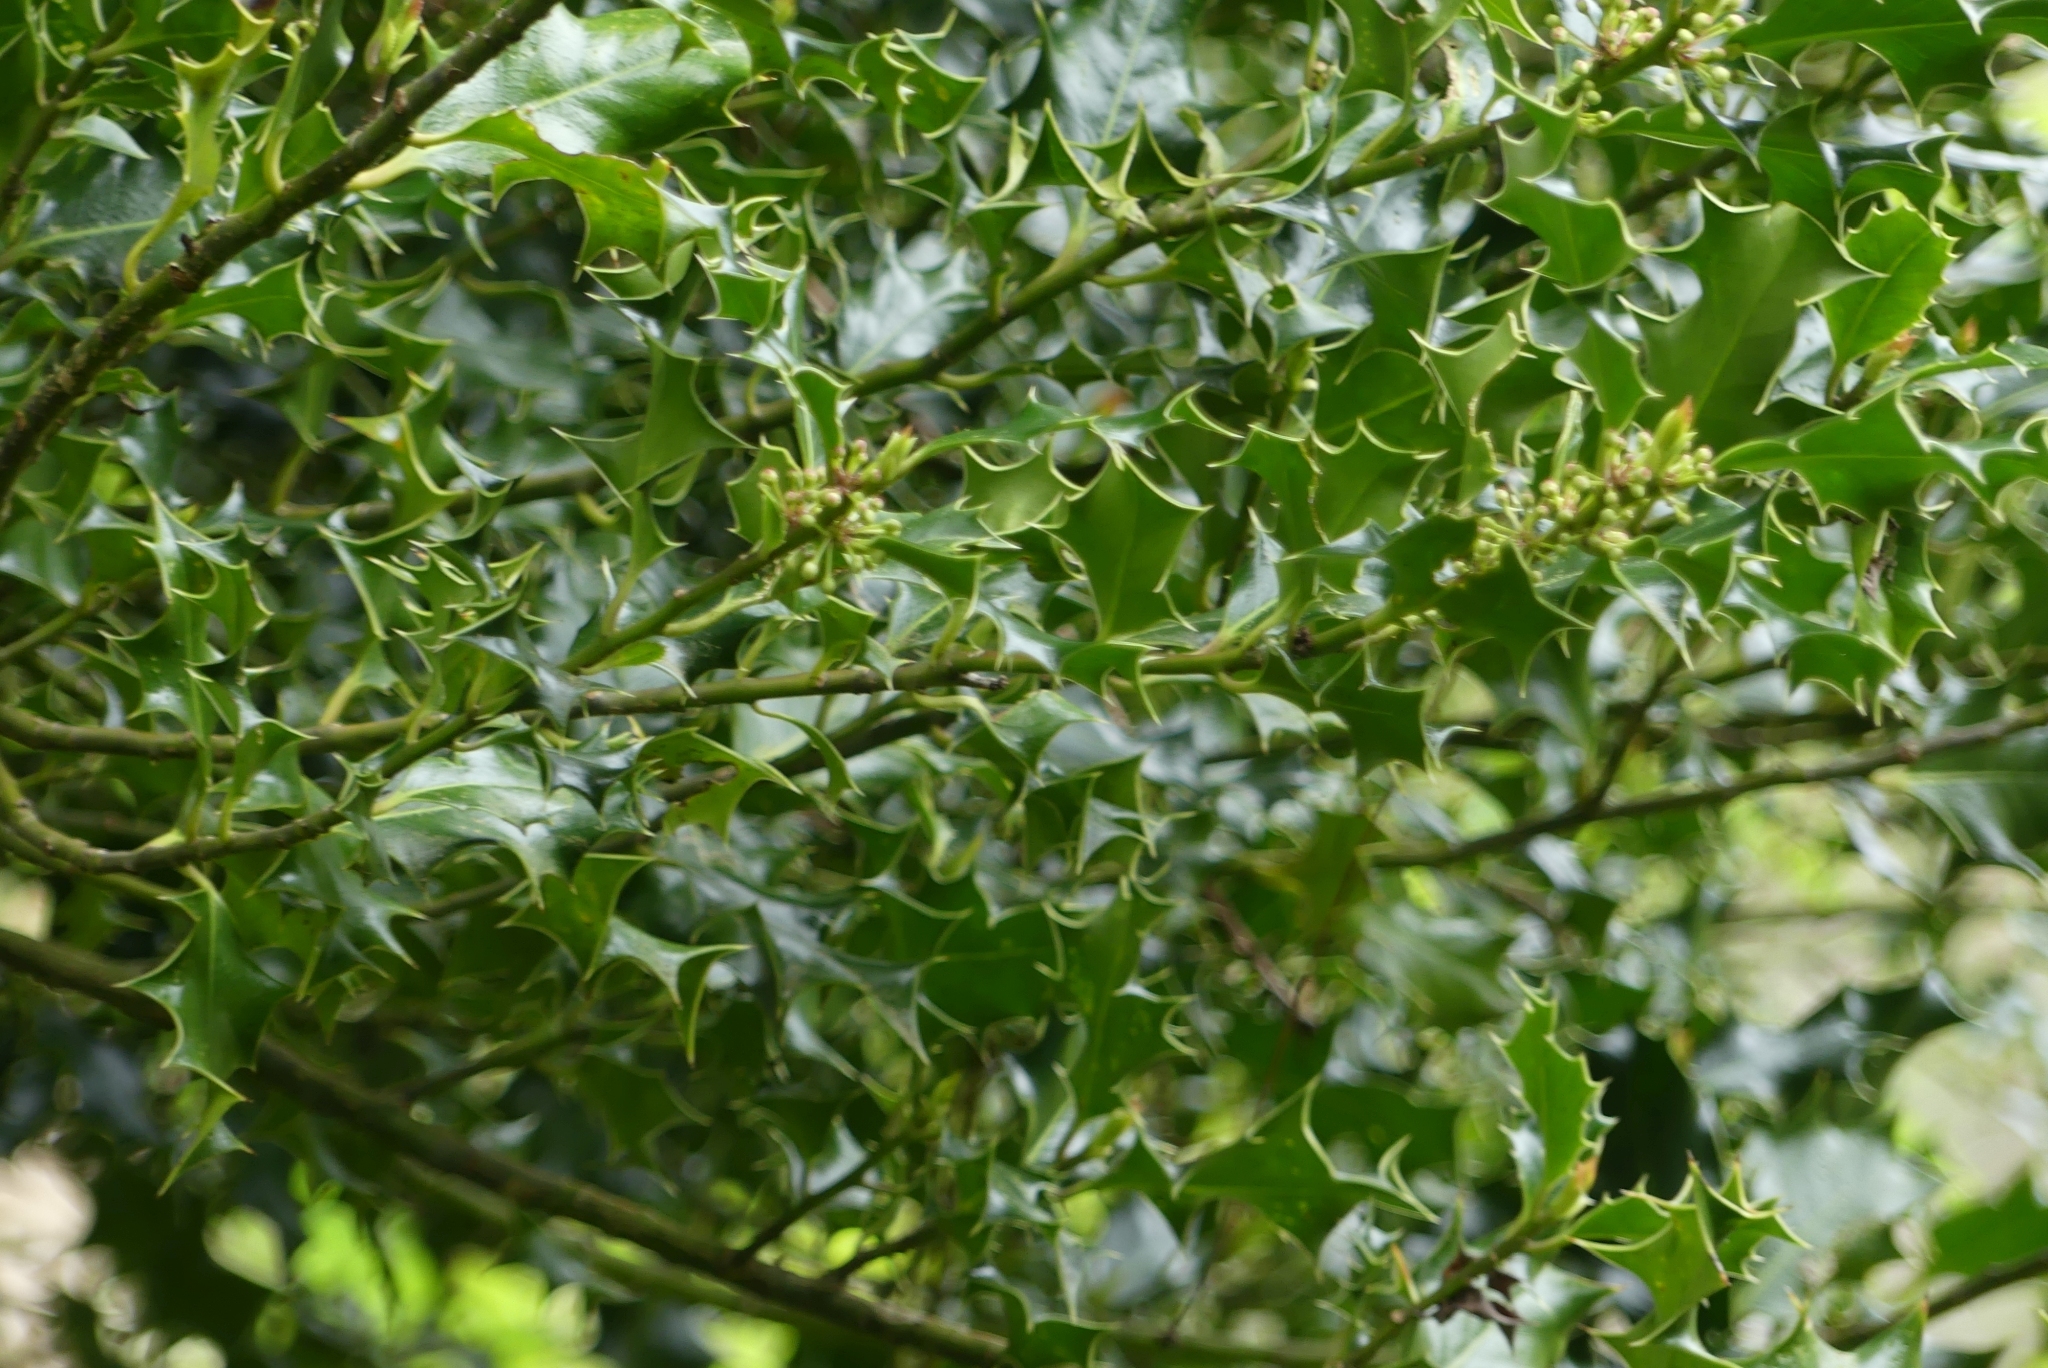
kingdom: Plantae
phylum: Tracheophyta
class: Magnoliopsida
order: Aquifoliales
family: Aquifoliaceae
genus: Ilex
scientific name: Ilex aquifolium
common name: English holly
